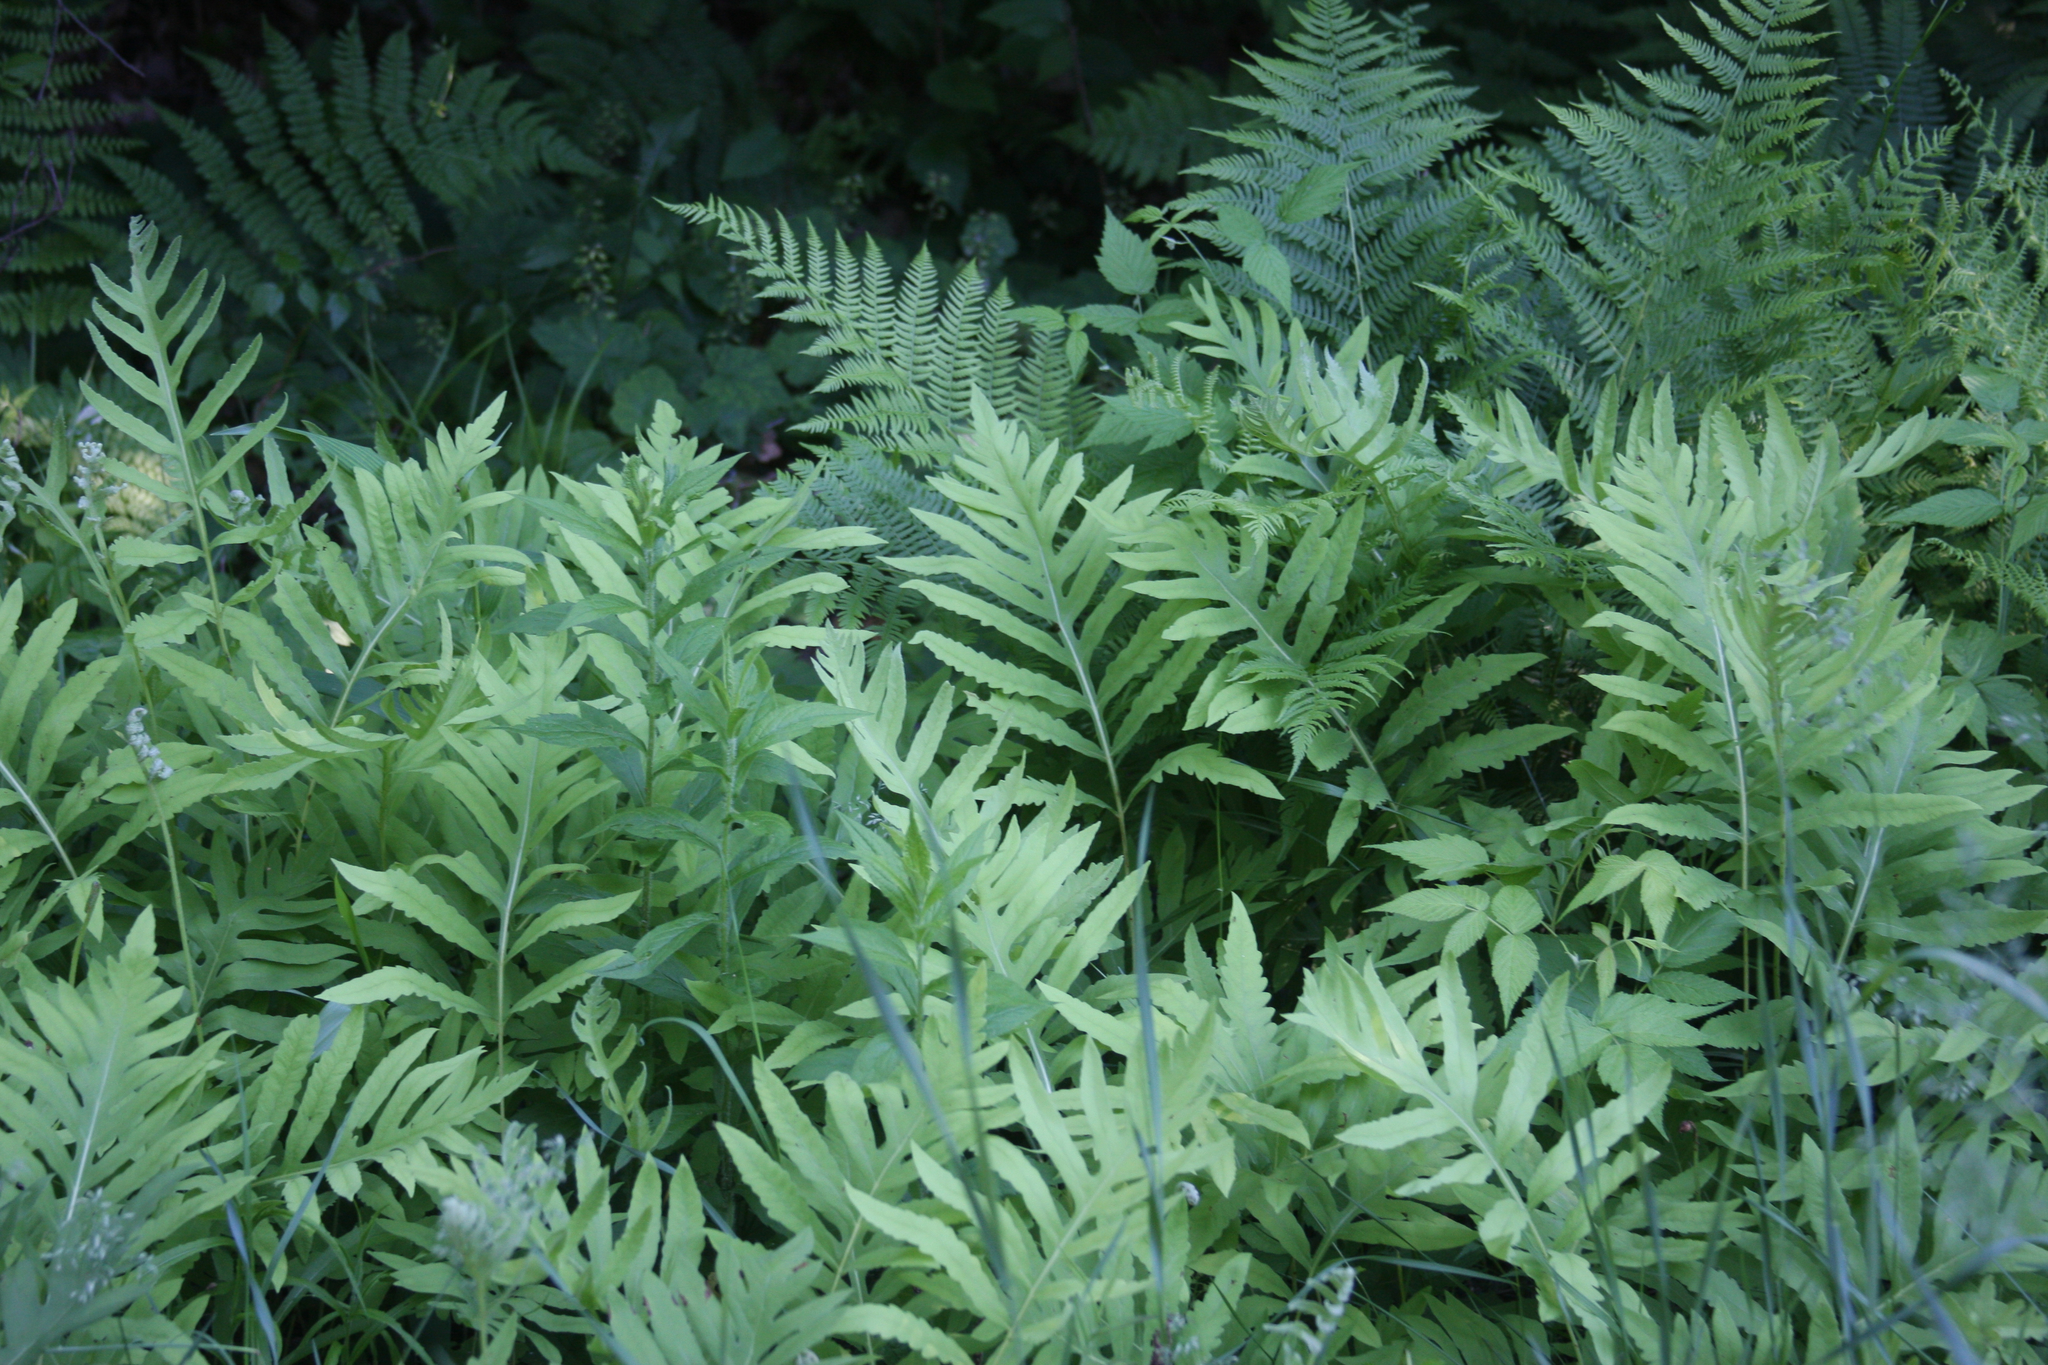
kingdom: Plantae
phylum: Tracheophyta
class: Polypodiopsida
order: Polypodiales
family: Onocleaceae
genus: Onoclea
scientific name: Onoclea sensibilis
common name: Sensitive fern
